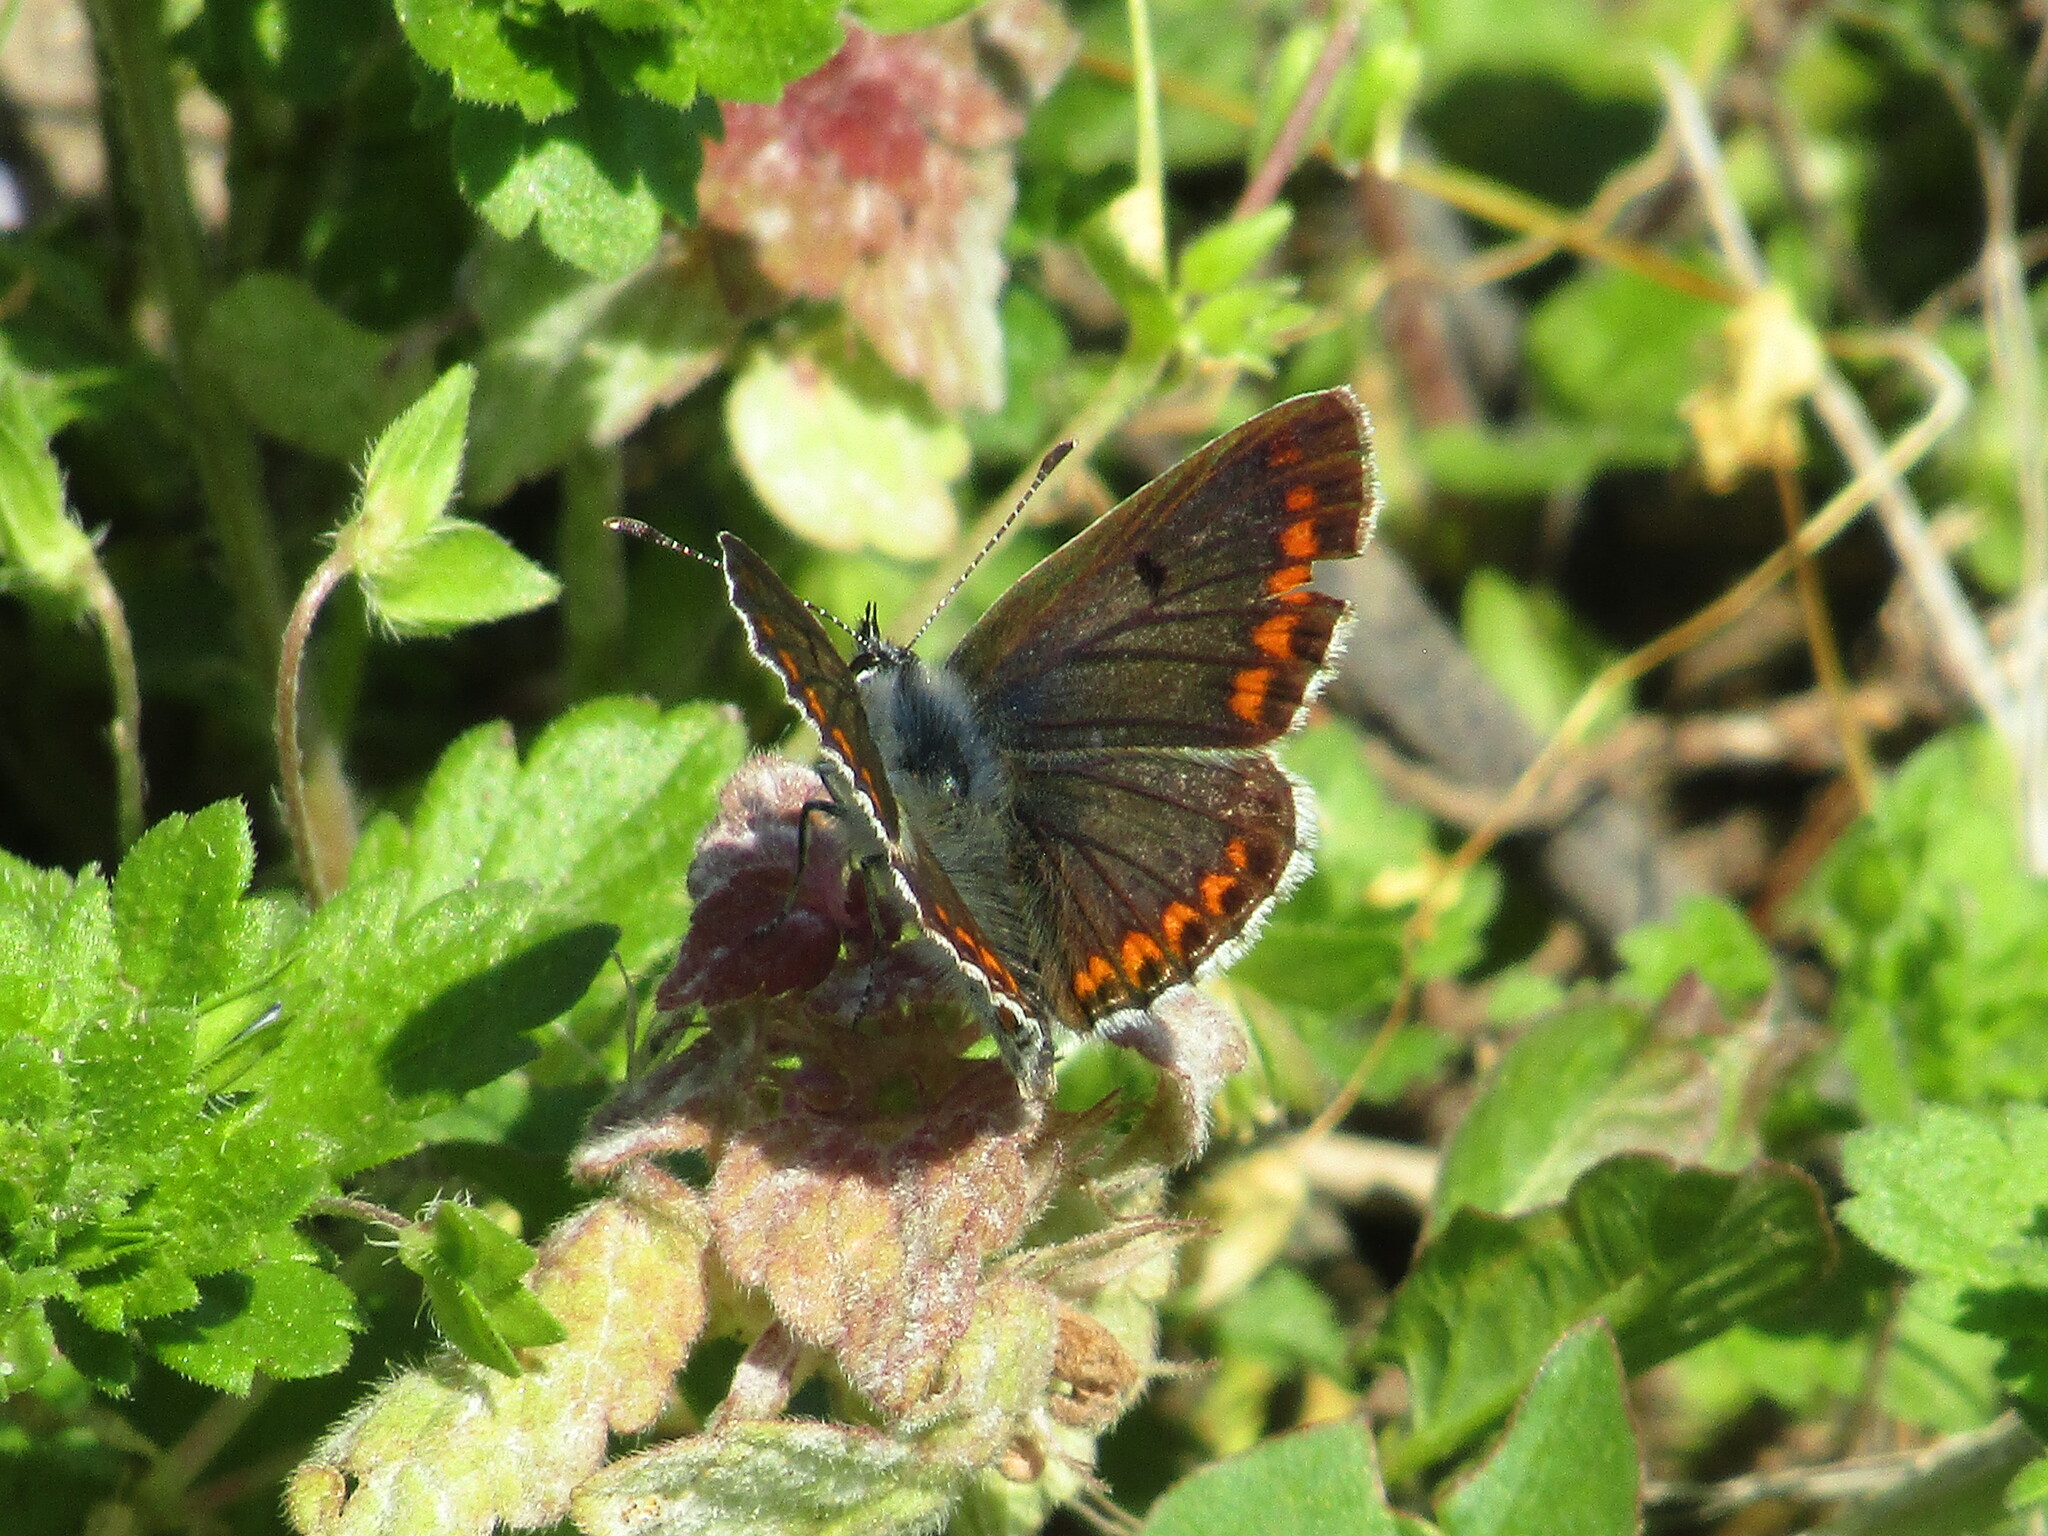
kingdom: Animalia
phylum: Arthropoda
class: Insecta
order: Lepidoptera
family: Lycaenidae
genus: Aricia
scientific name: Aricia agestis
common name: Brown argus
